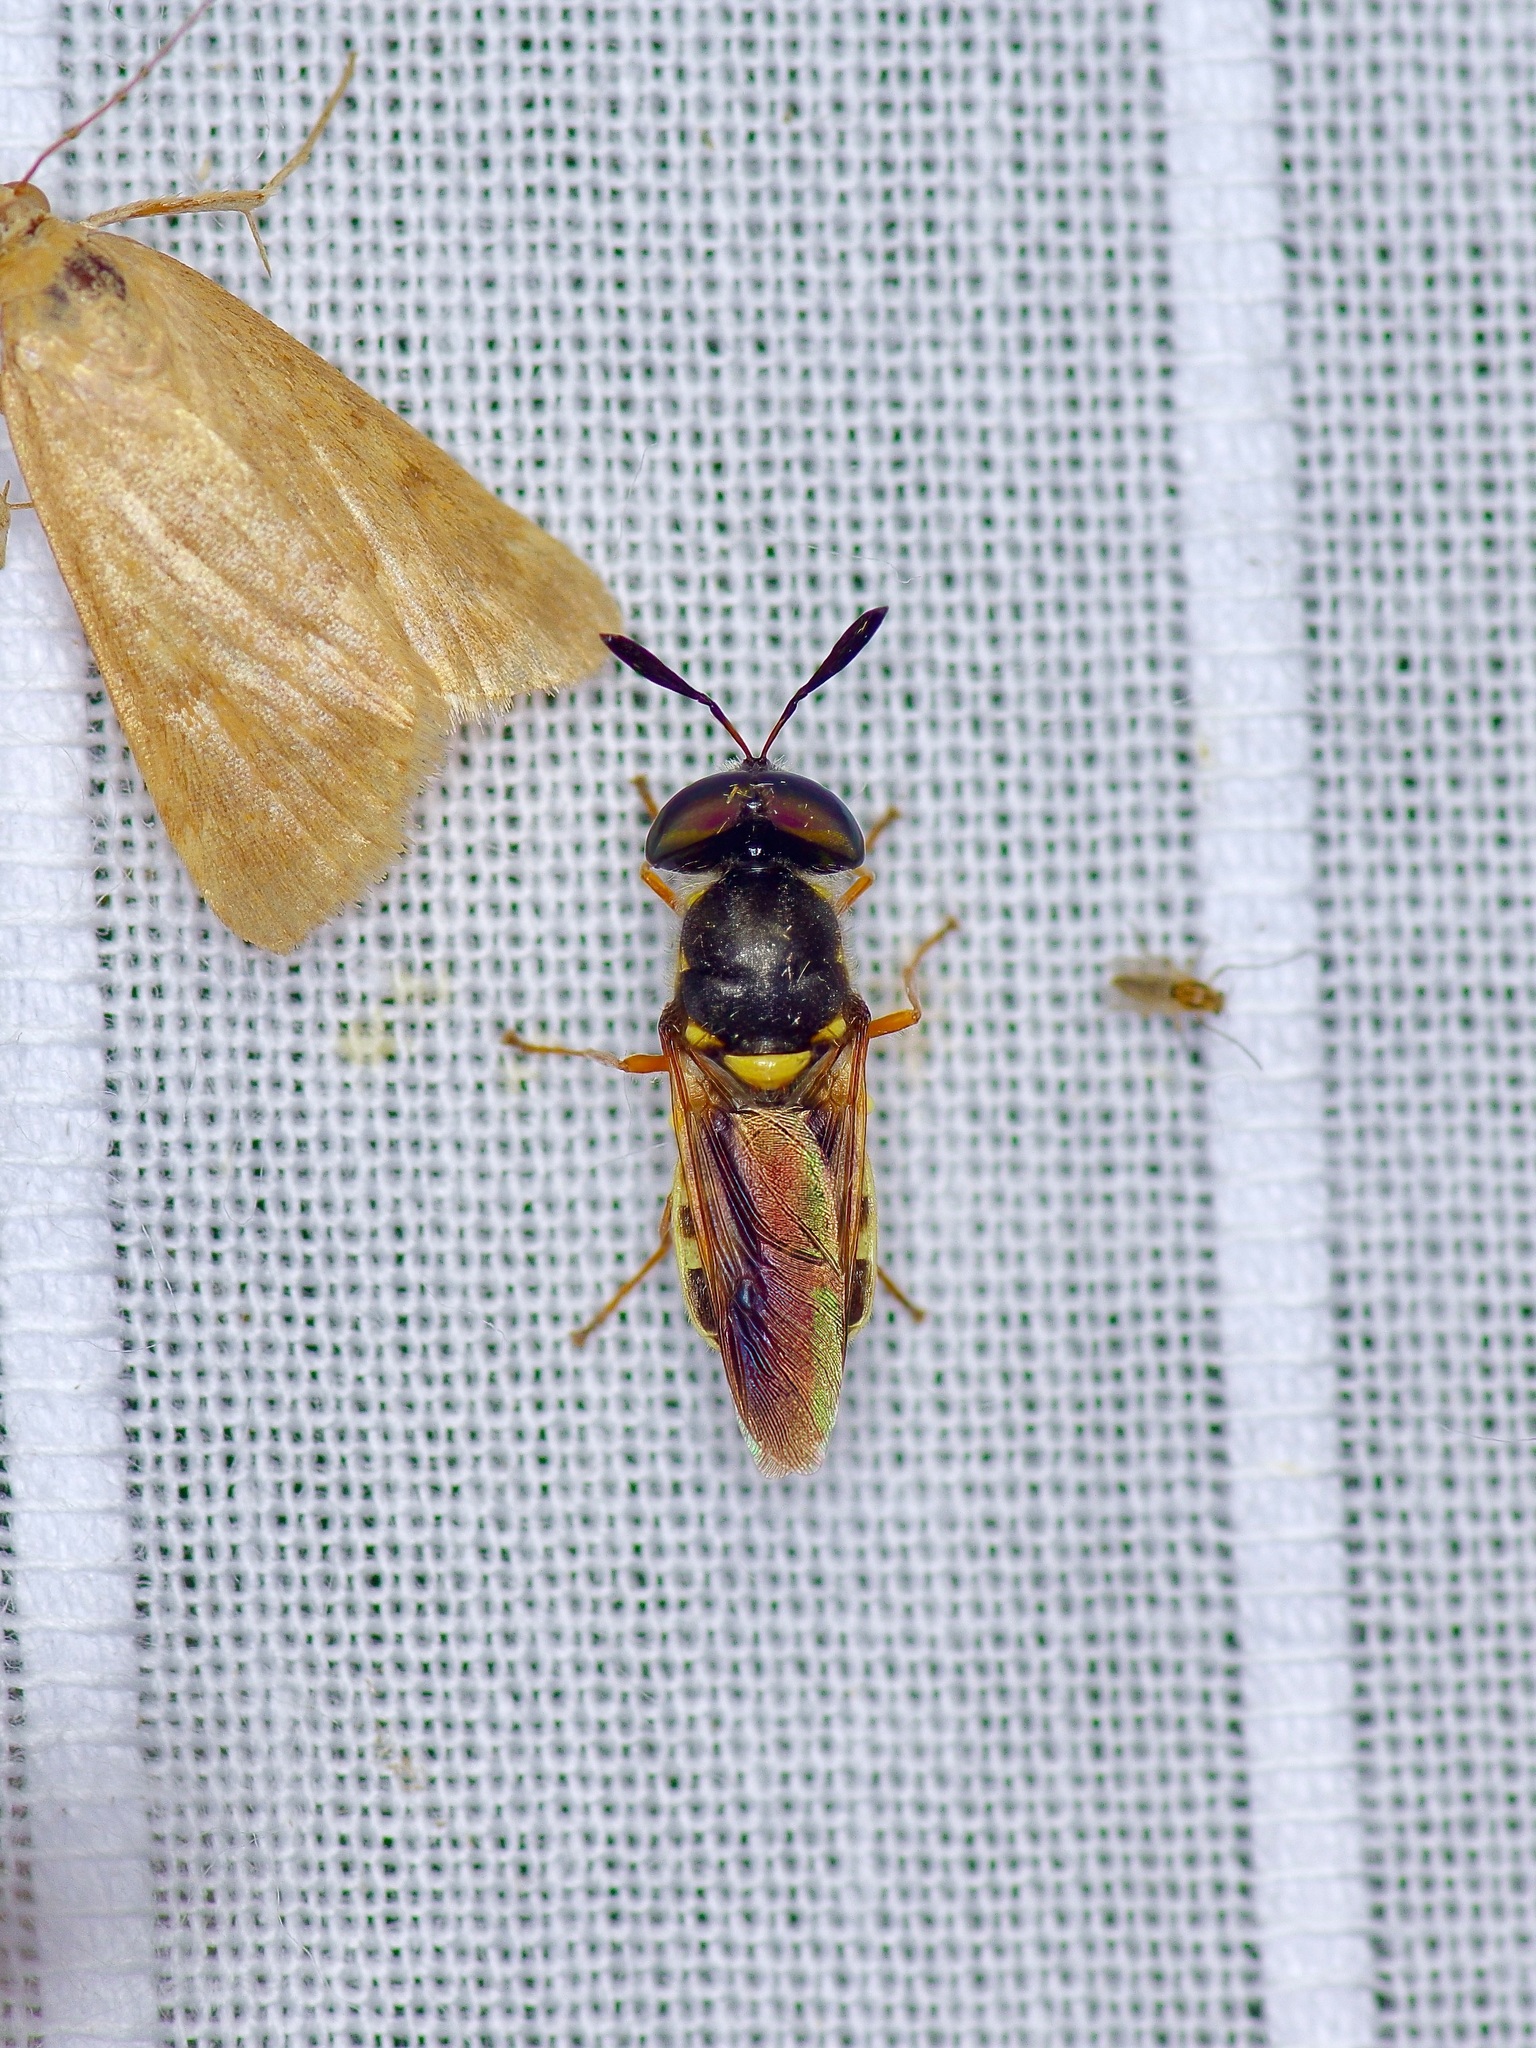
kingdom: Animalia
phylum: Arthropoda
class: Insecta
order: Diptera
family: Stratiomyidae
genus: Hoplitimyia
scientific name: Hoplitimyia constans
